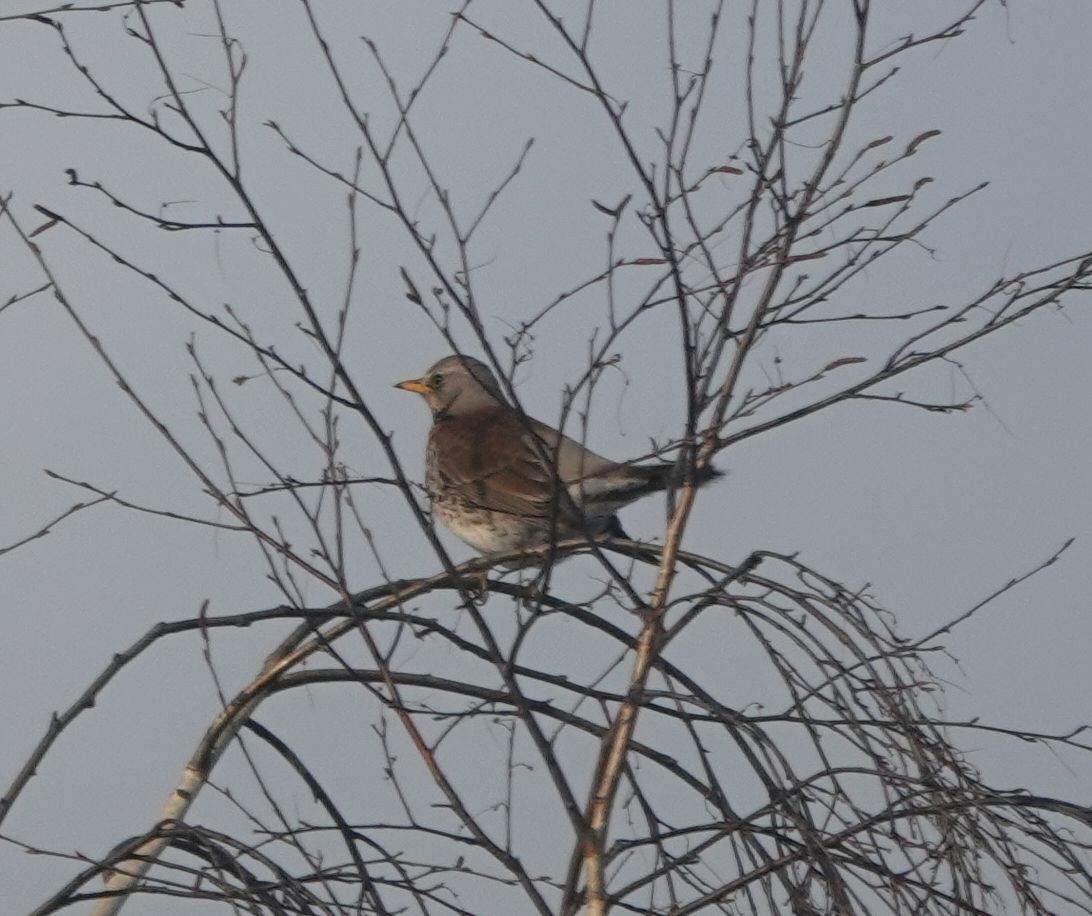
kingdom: Animalia
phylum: Chordata
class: Aves
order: Passeriformes
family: Turdidae
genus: Turdus
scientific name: Turdus pilaris
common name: Fieldfare
